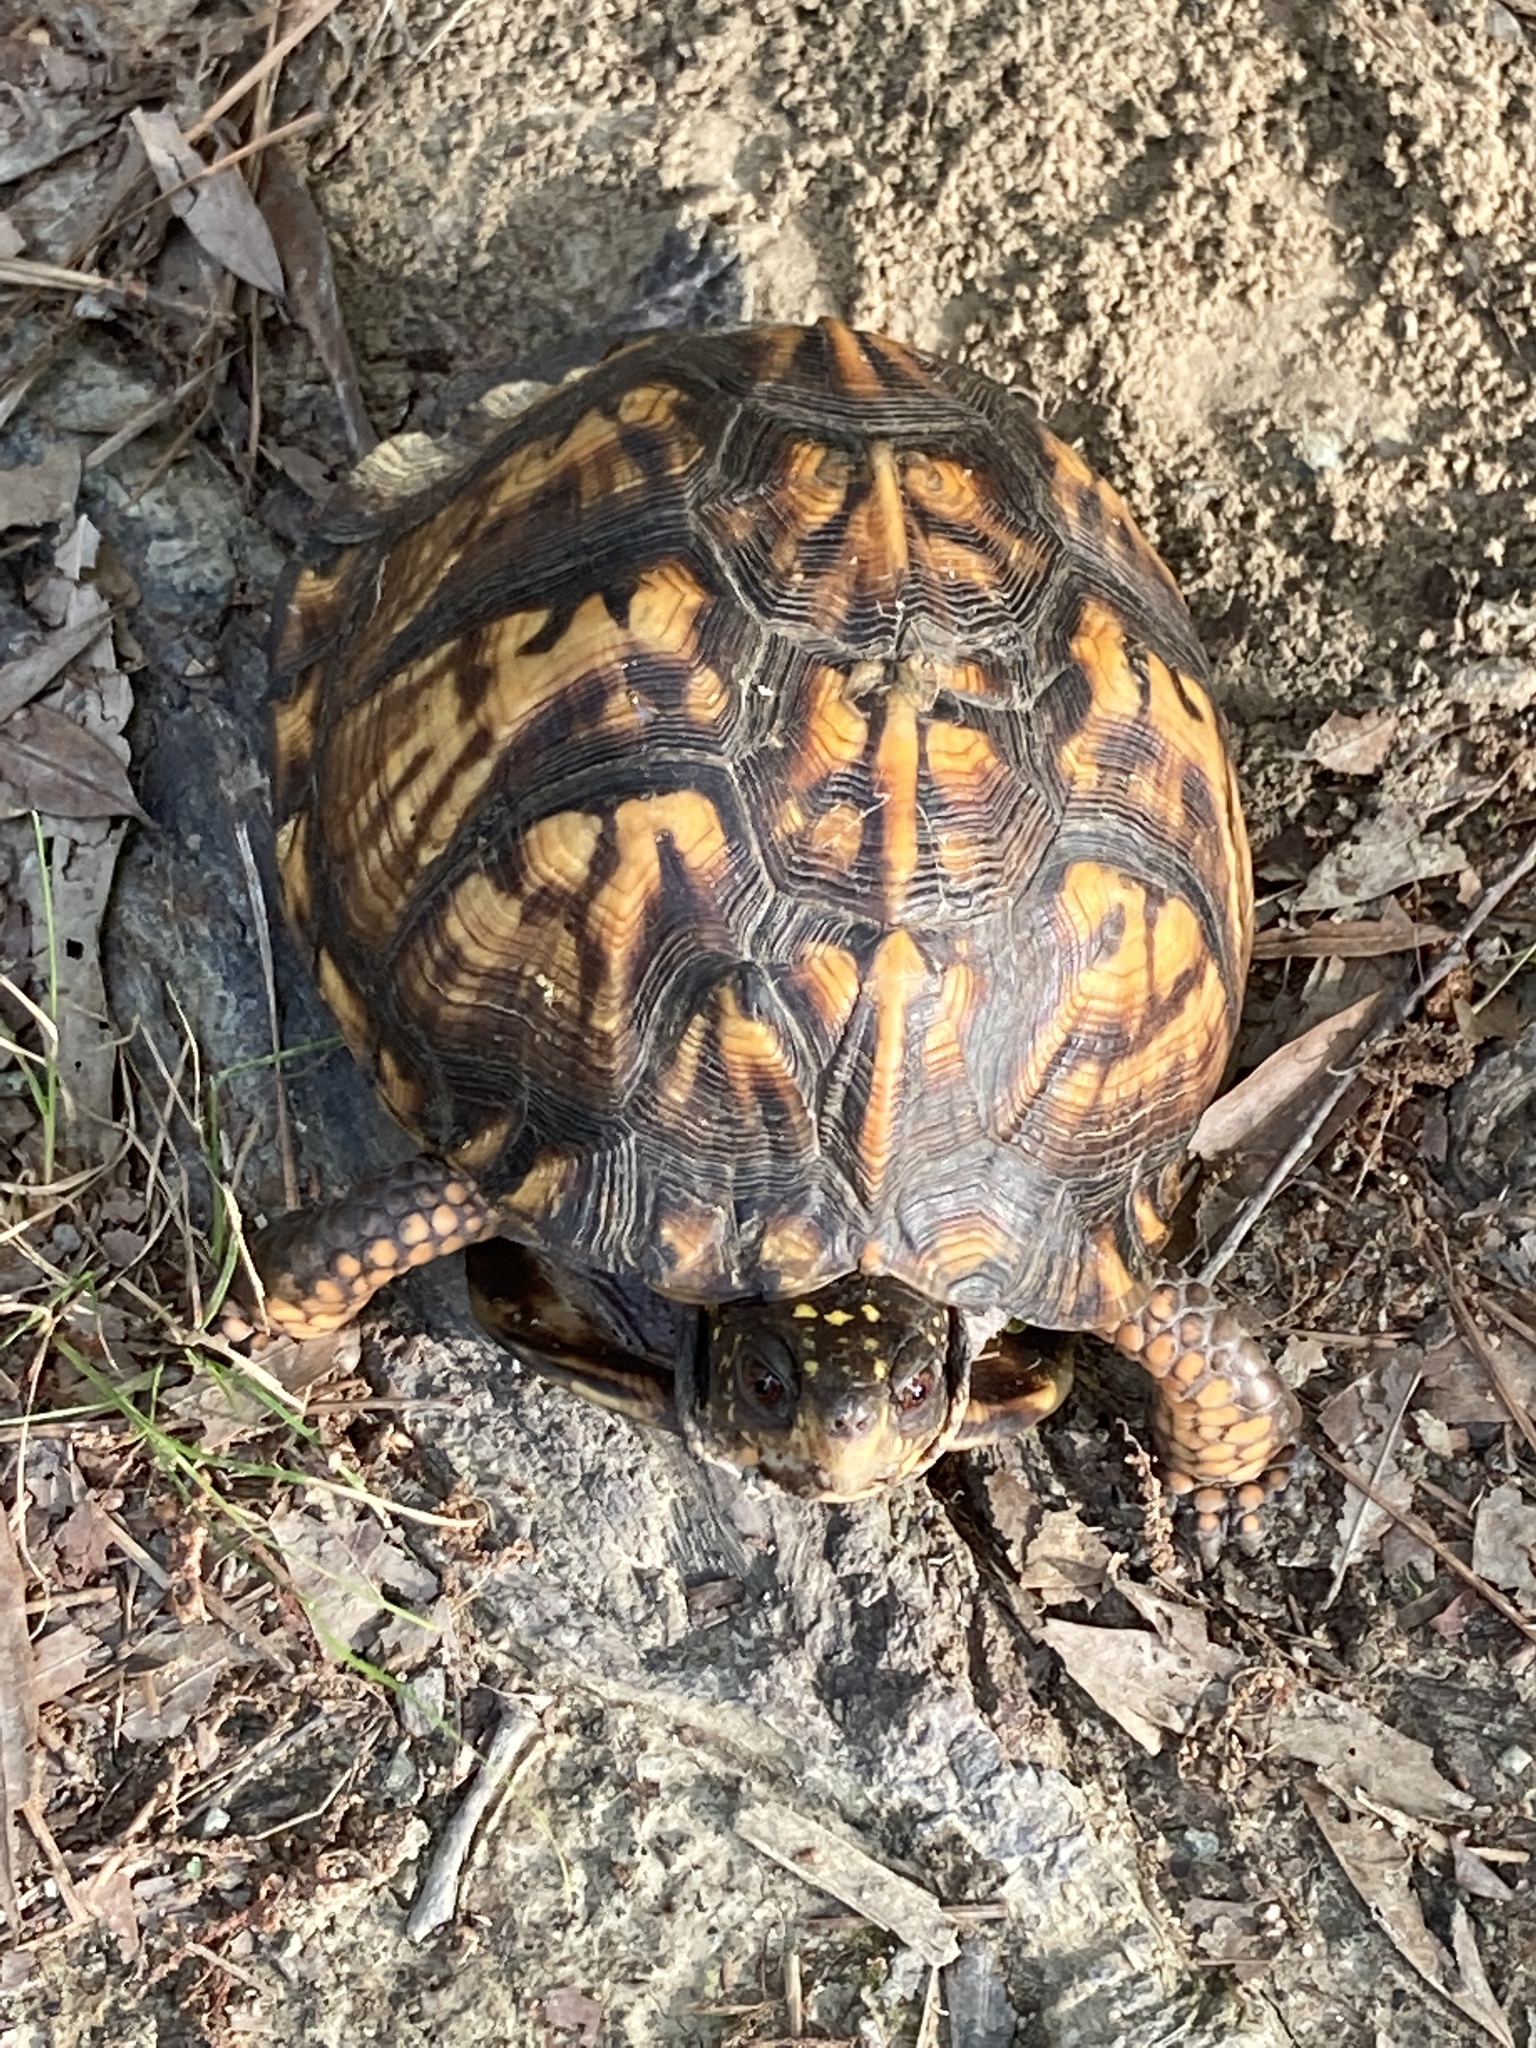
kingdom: Animalia
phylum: Chordata
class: Testudines
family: Emydidae
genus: Terrapene
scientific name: Terrapene carolina
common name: Common box turtle
